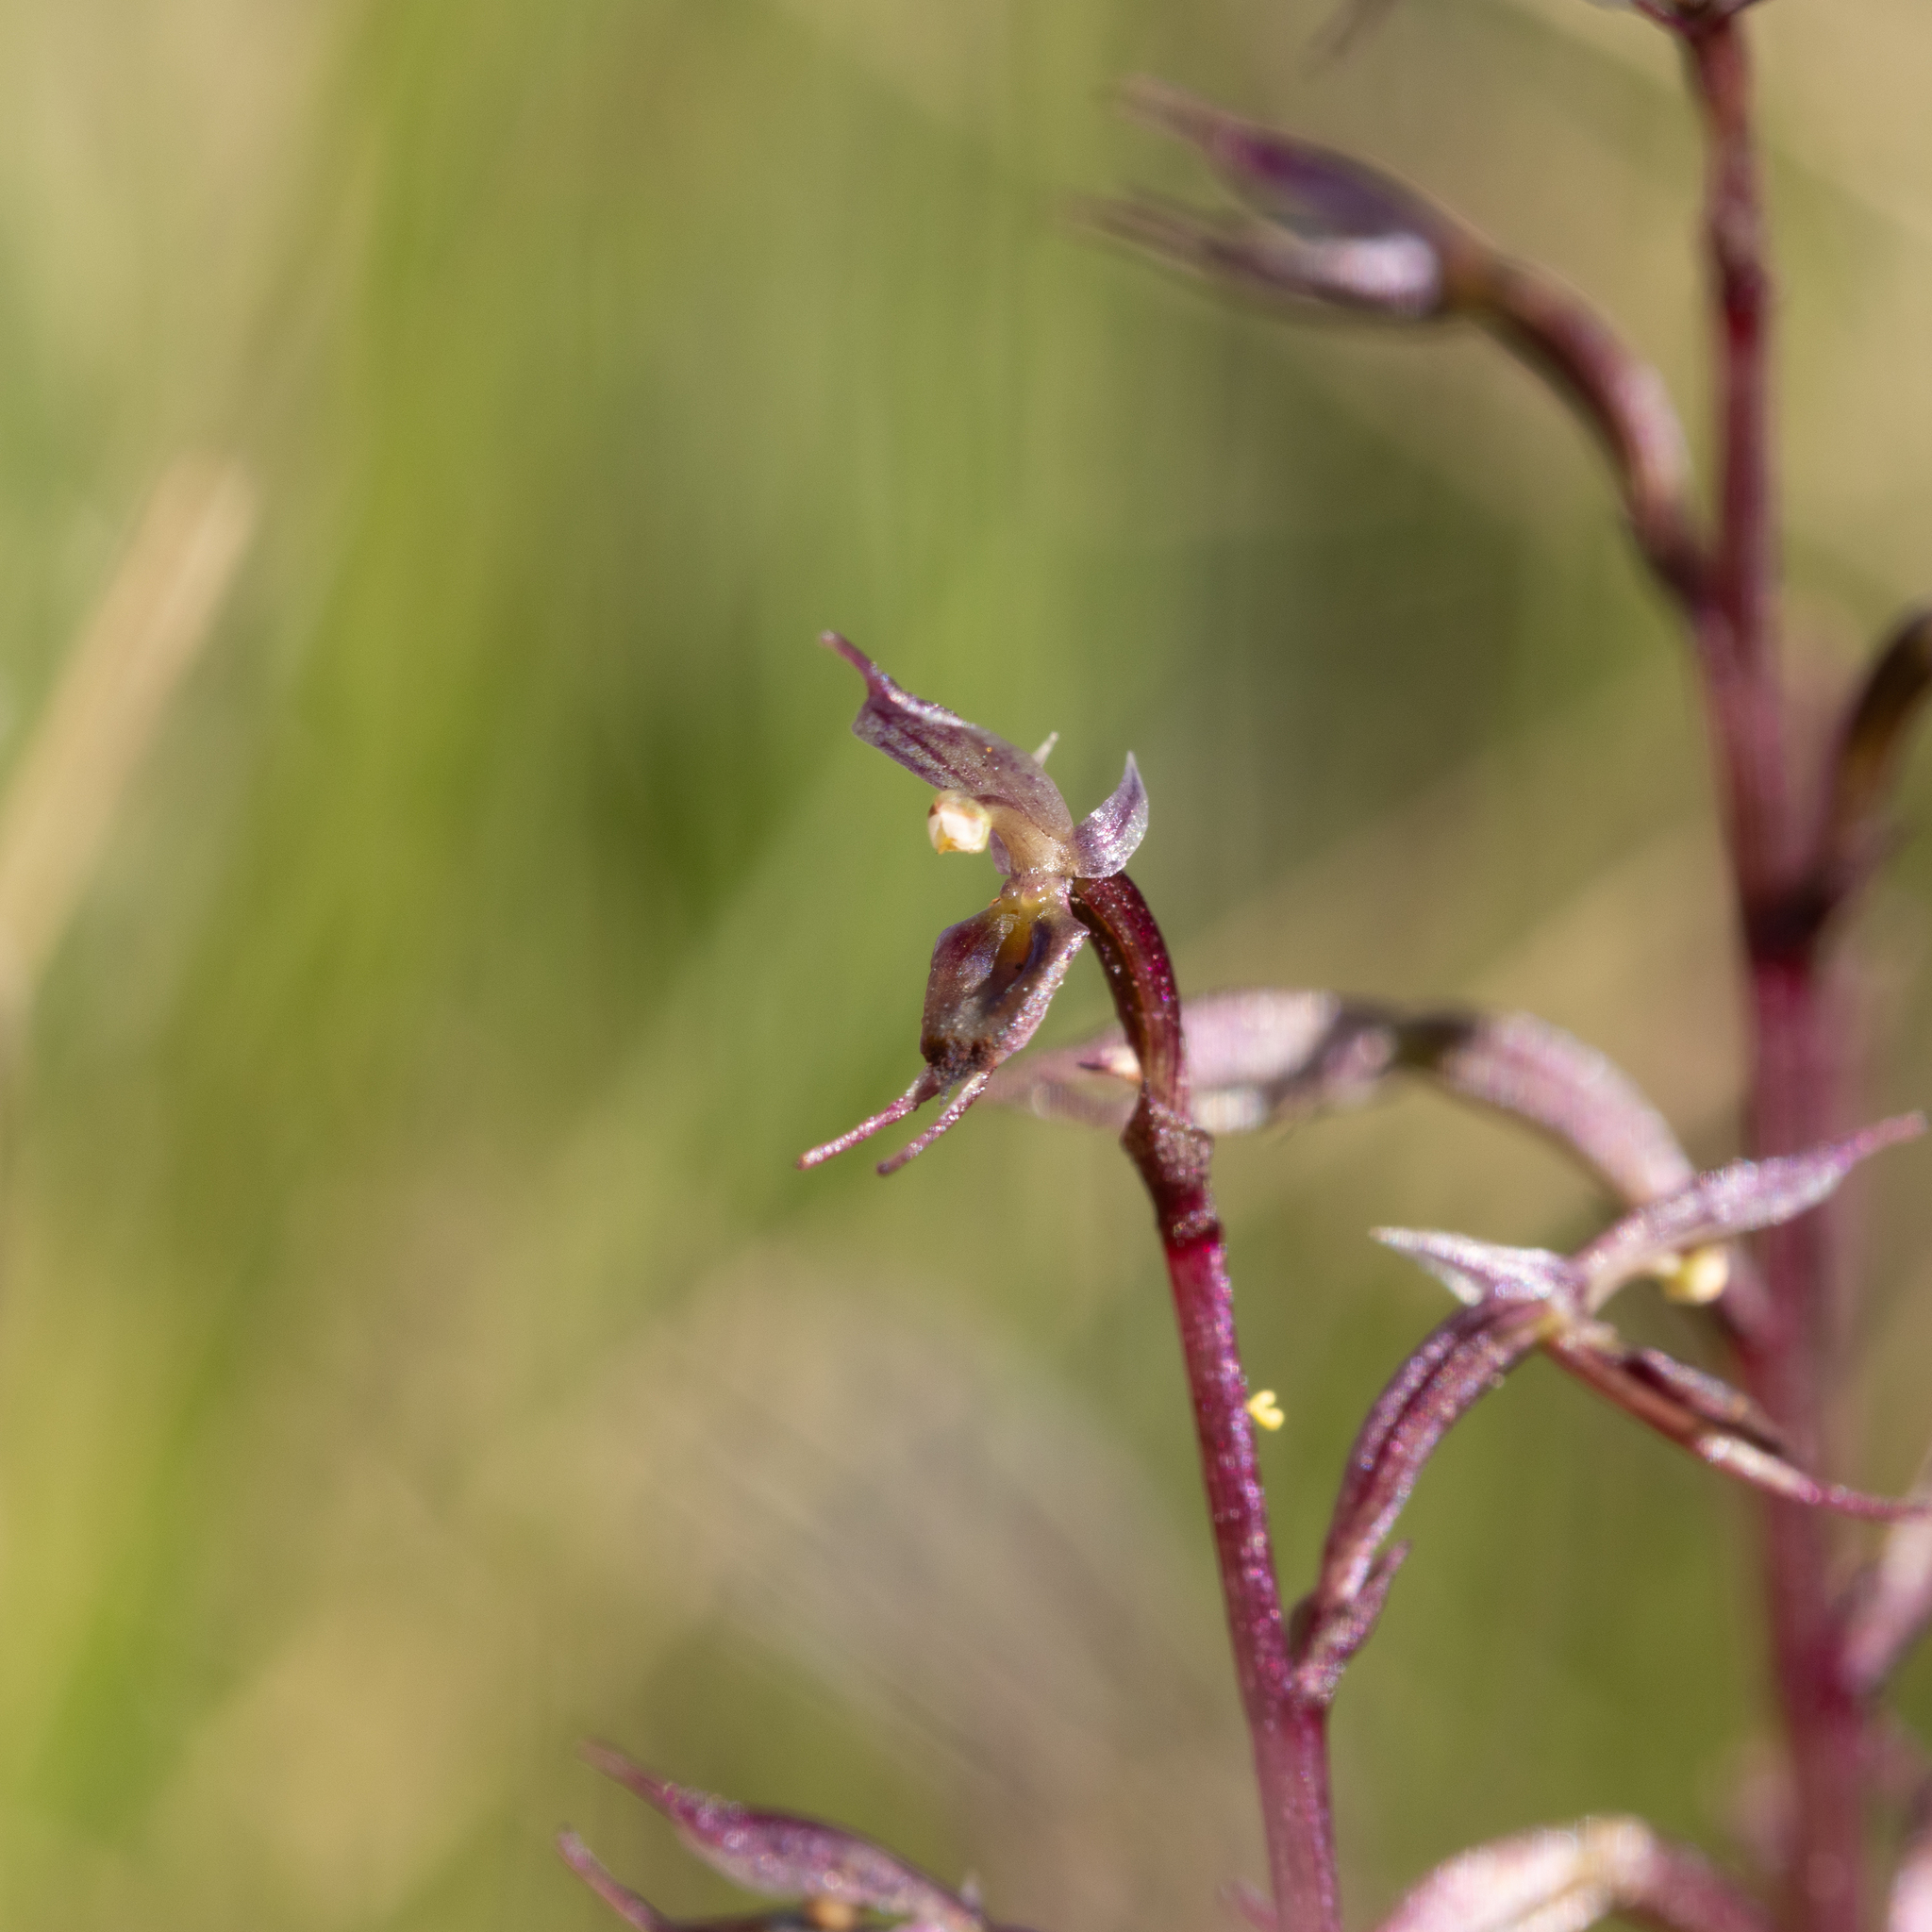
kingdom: Plantae
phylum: Tracheophyta
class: Liliopsida
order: Asparagales
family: Orchidaceae
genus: Acianthus
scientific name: Acianthus pusillus
